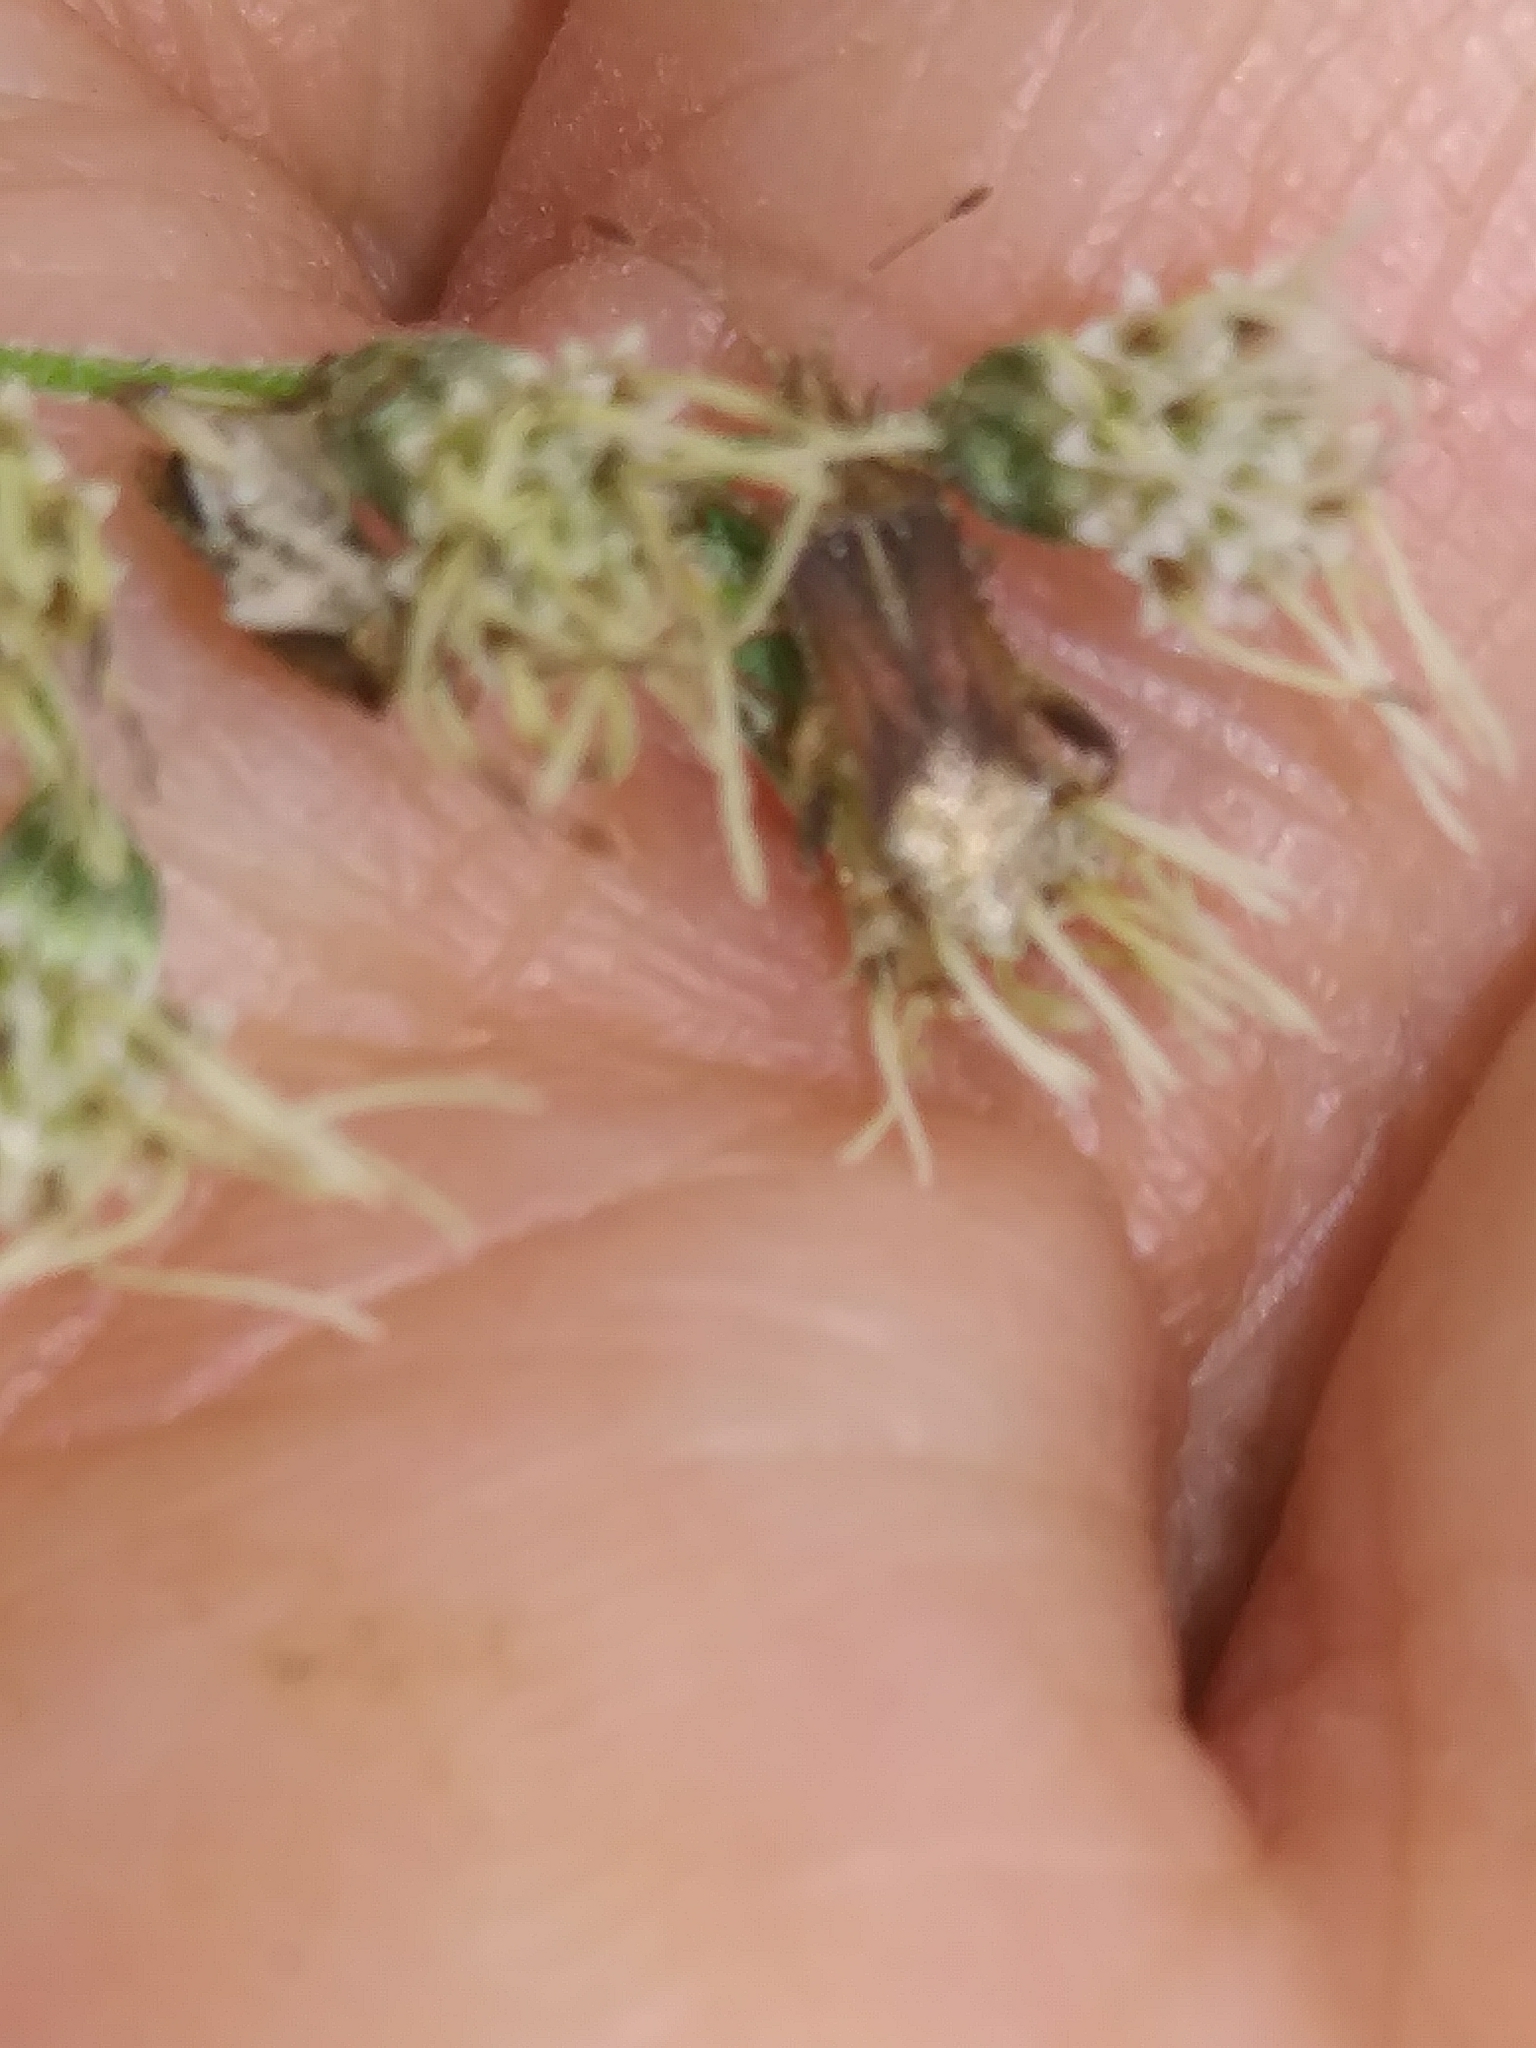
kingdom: Animalia
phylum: Arthropoda
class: Insecta
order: Hemiptera
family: Rhopalidae
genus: Harmostes
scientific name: Harmostes fraterculus
